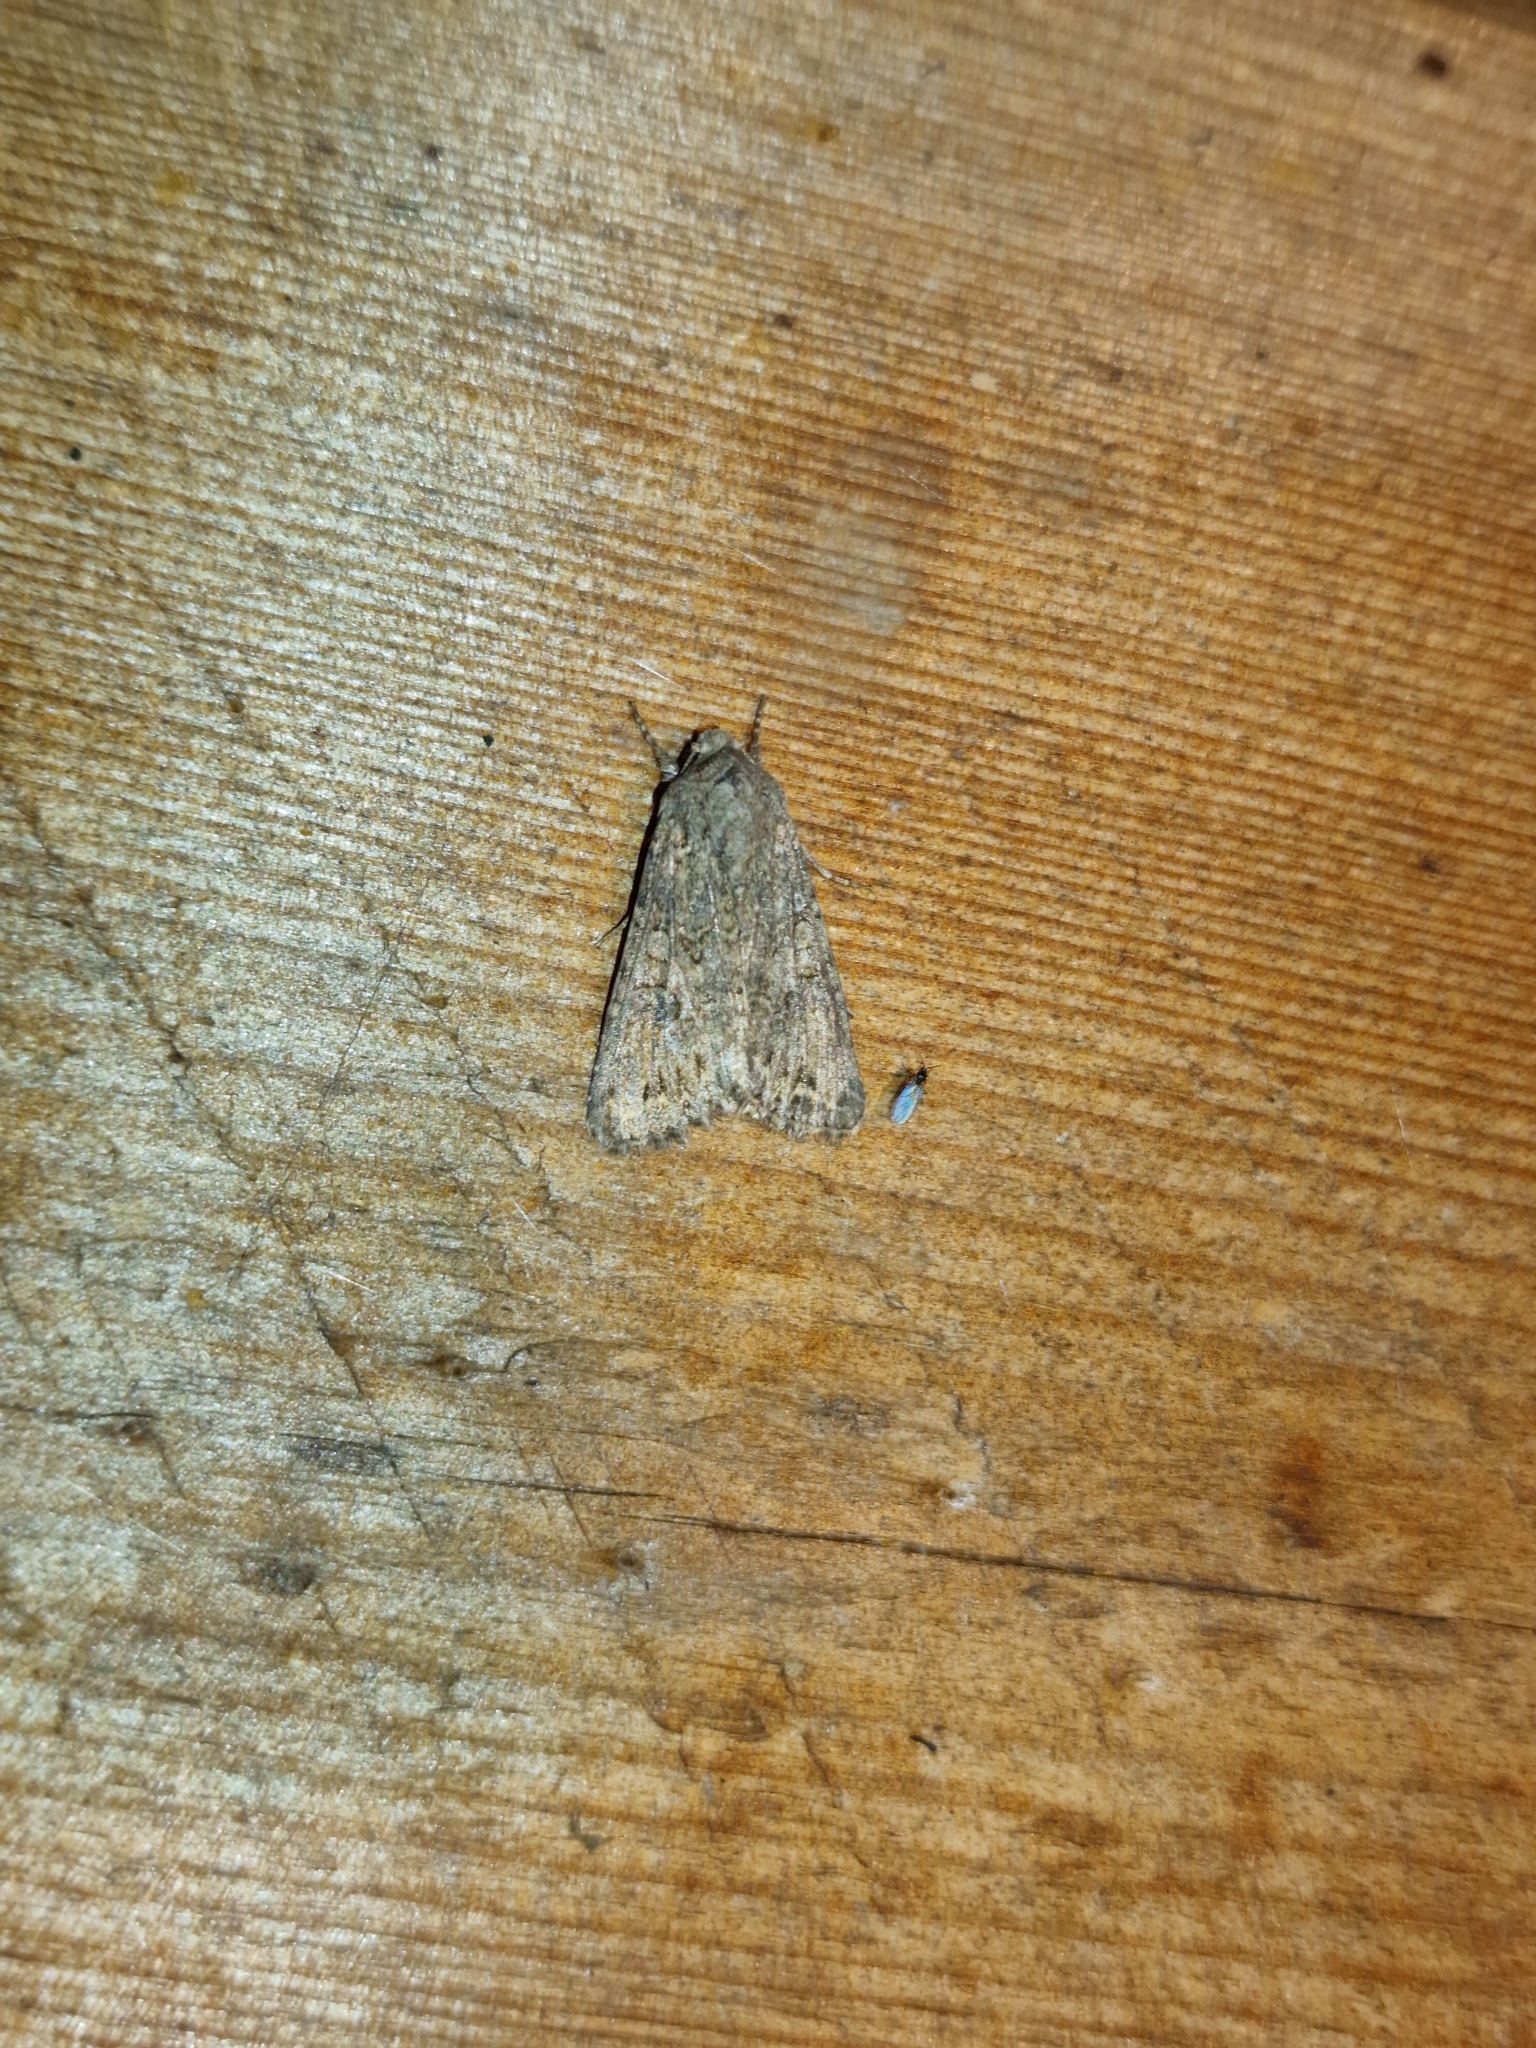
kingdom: Animalia
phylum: Arthropoda
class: Insecta
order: Lepidoptera
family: Noctuidae
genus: Anarta
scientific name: Anarta trifolii
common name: Clover cutworm moth
